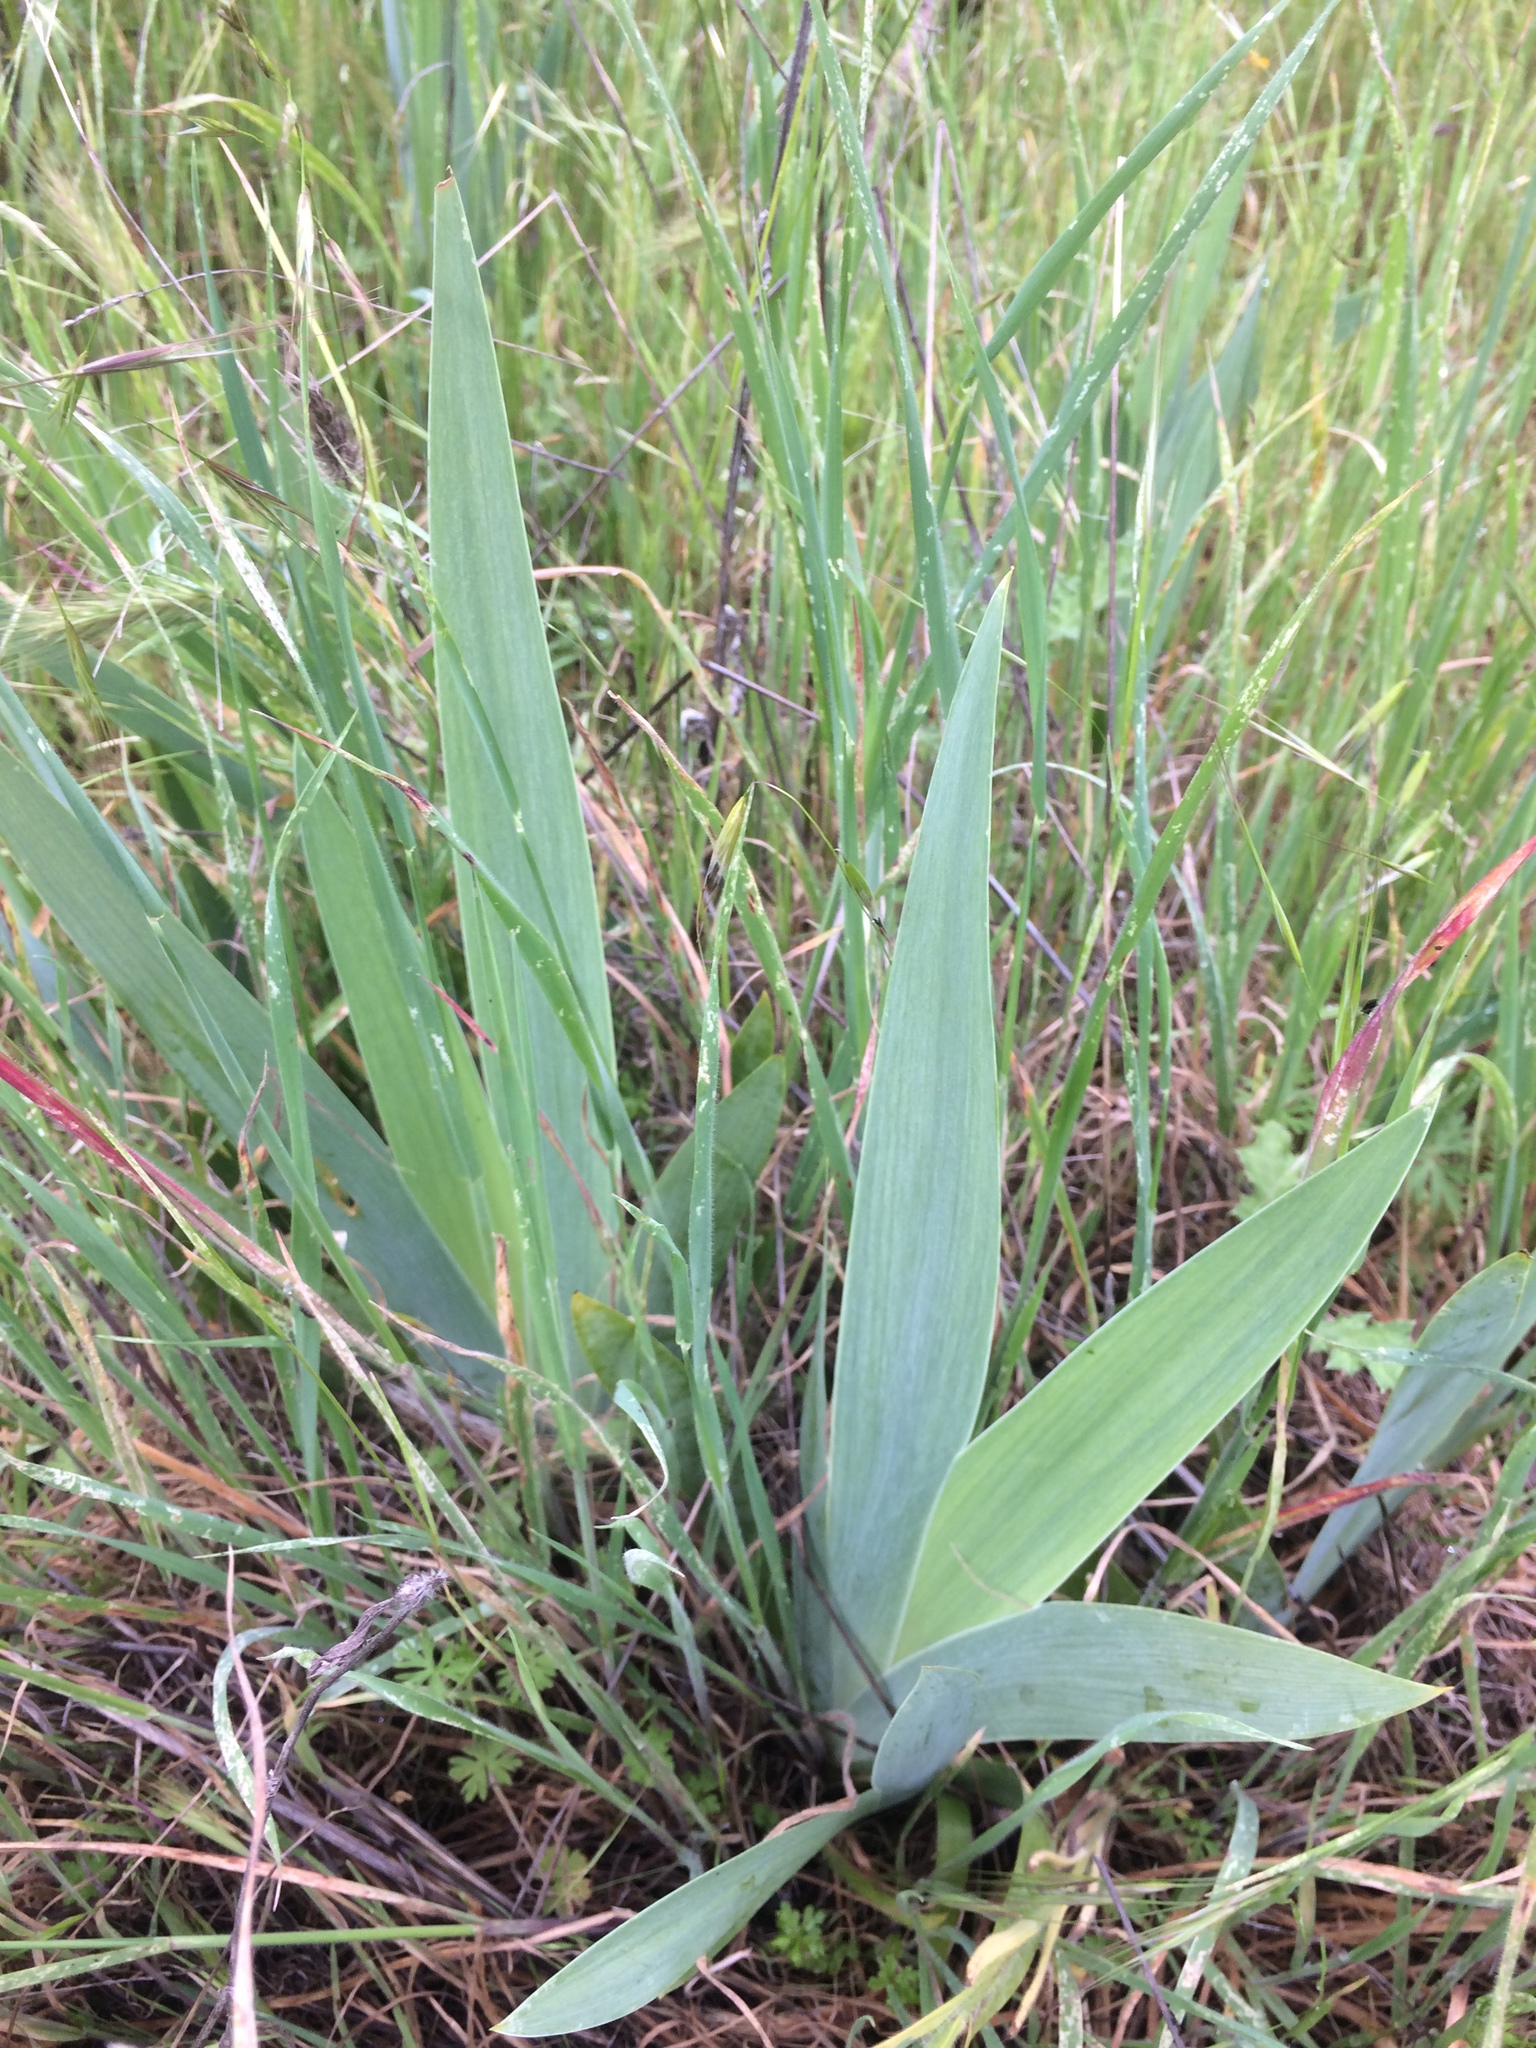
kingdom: Plantae
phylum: Tracheophyta
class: Liliopsida
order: Asparagales
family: Iridaceae
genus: Iris
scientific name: Iris germanica
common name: German iris
